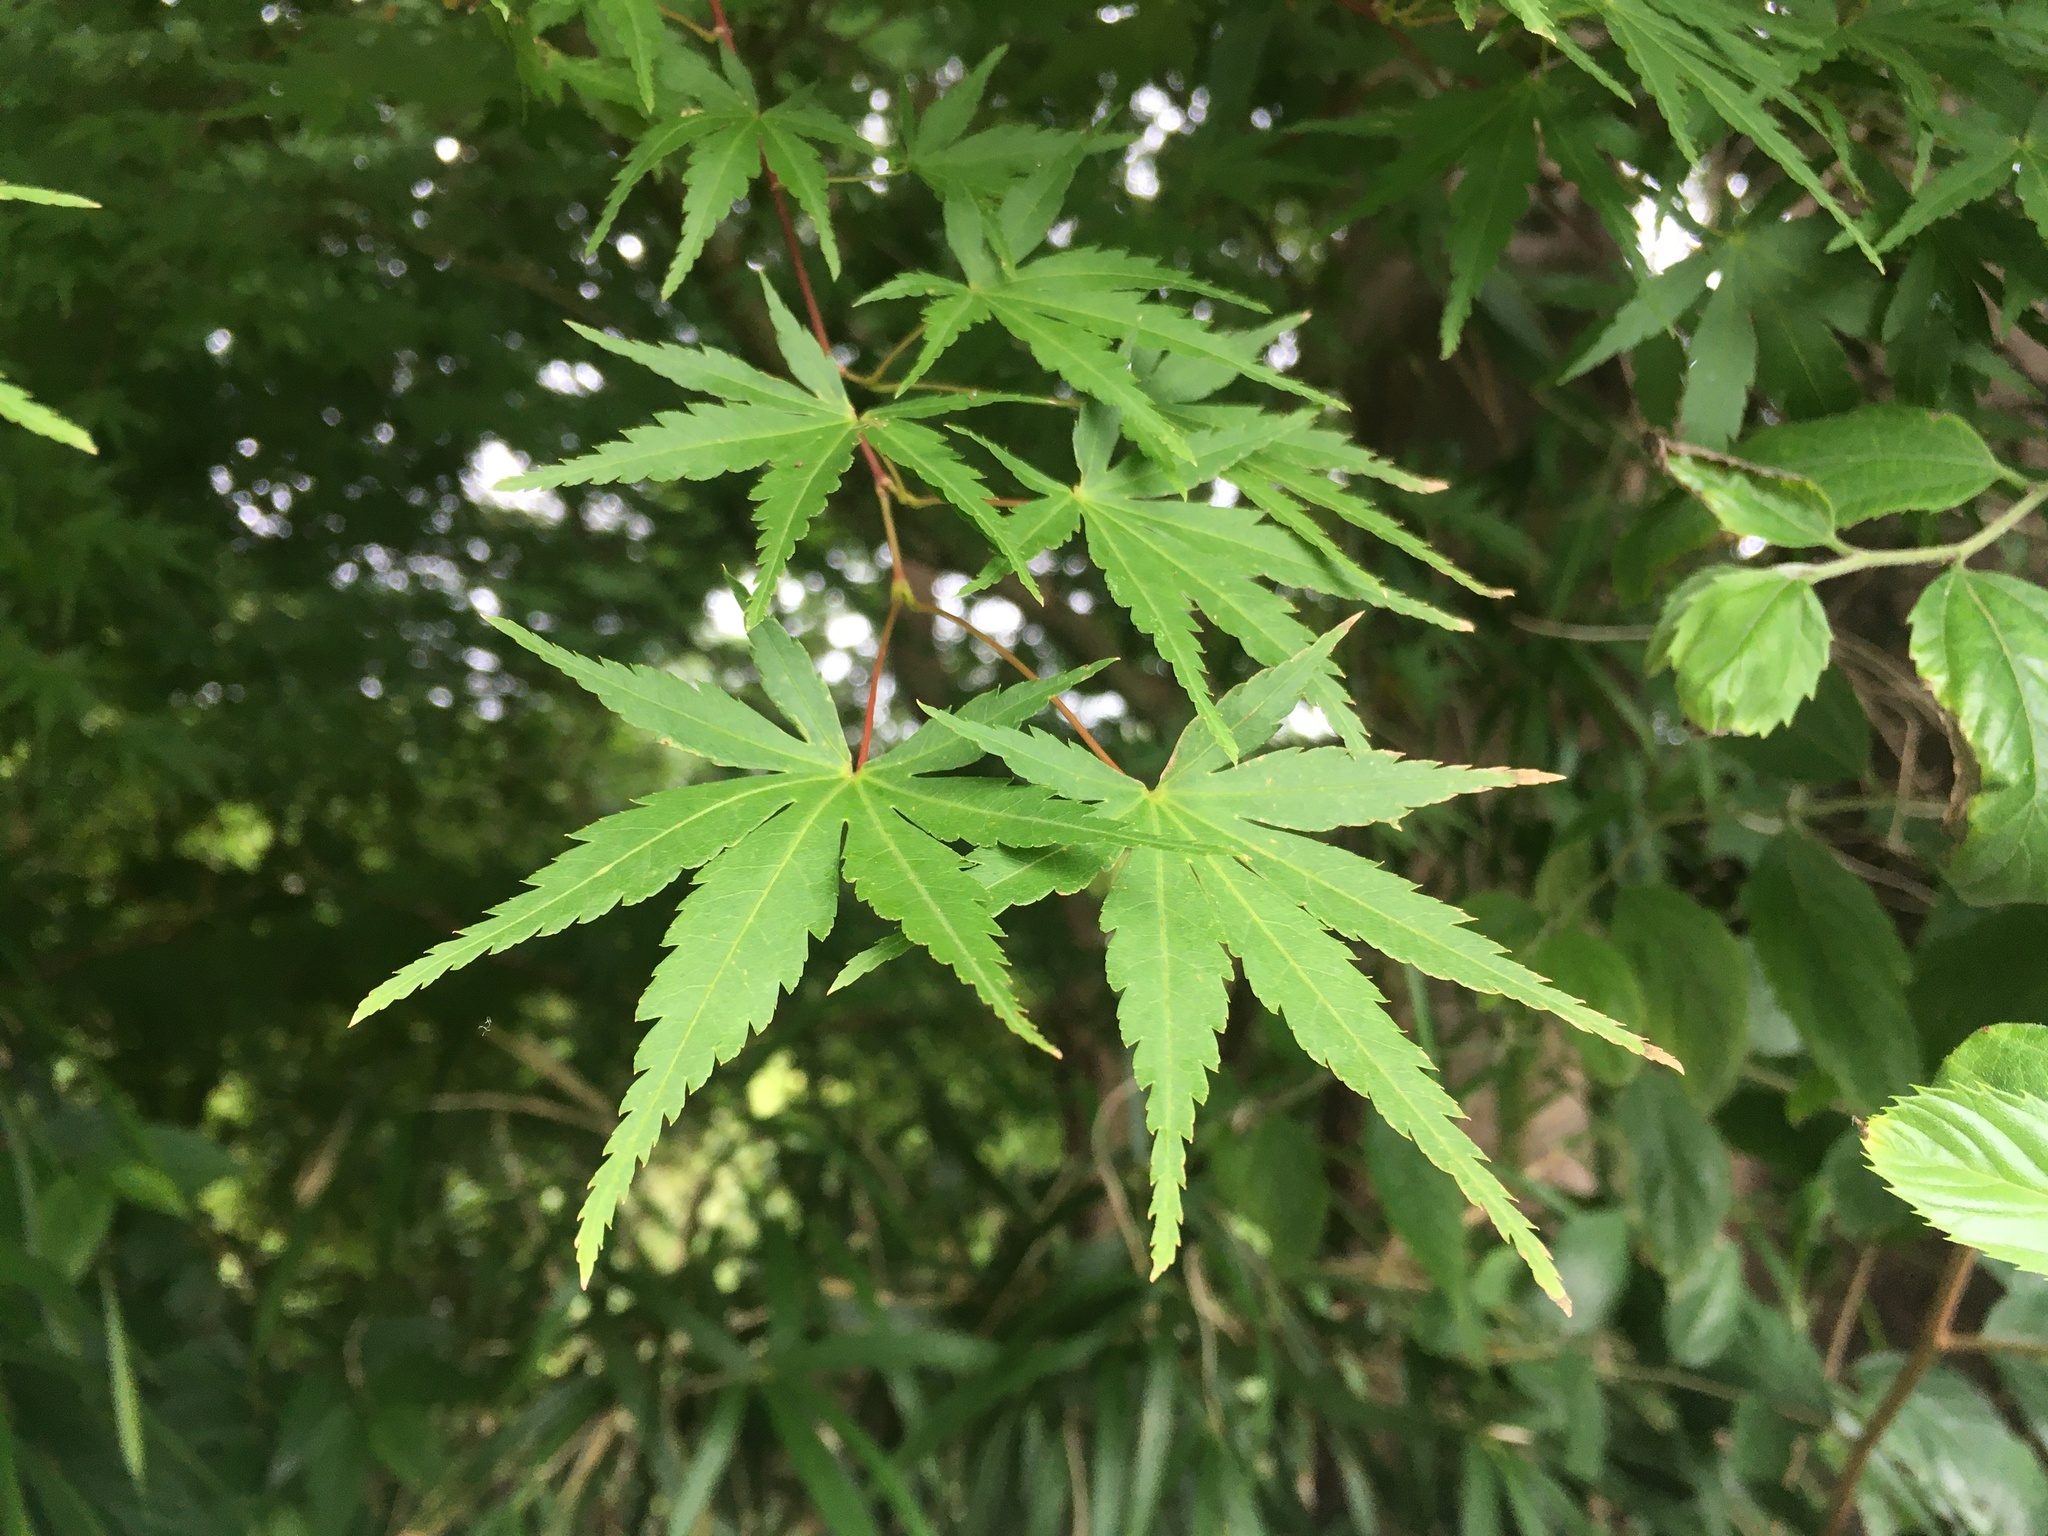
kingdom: Plantae
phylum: Tracheophyta
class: Magnoliopsida
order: Sapindales
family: Sapindaceae
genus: Acer
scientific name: Acer palmatum
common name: Japanese maple
